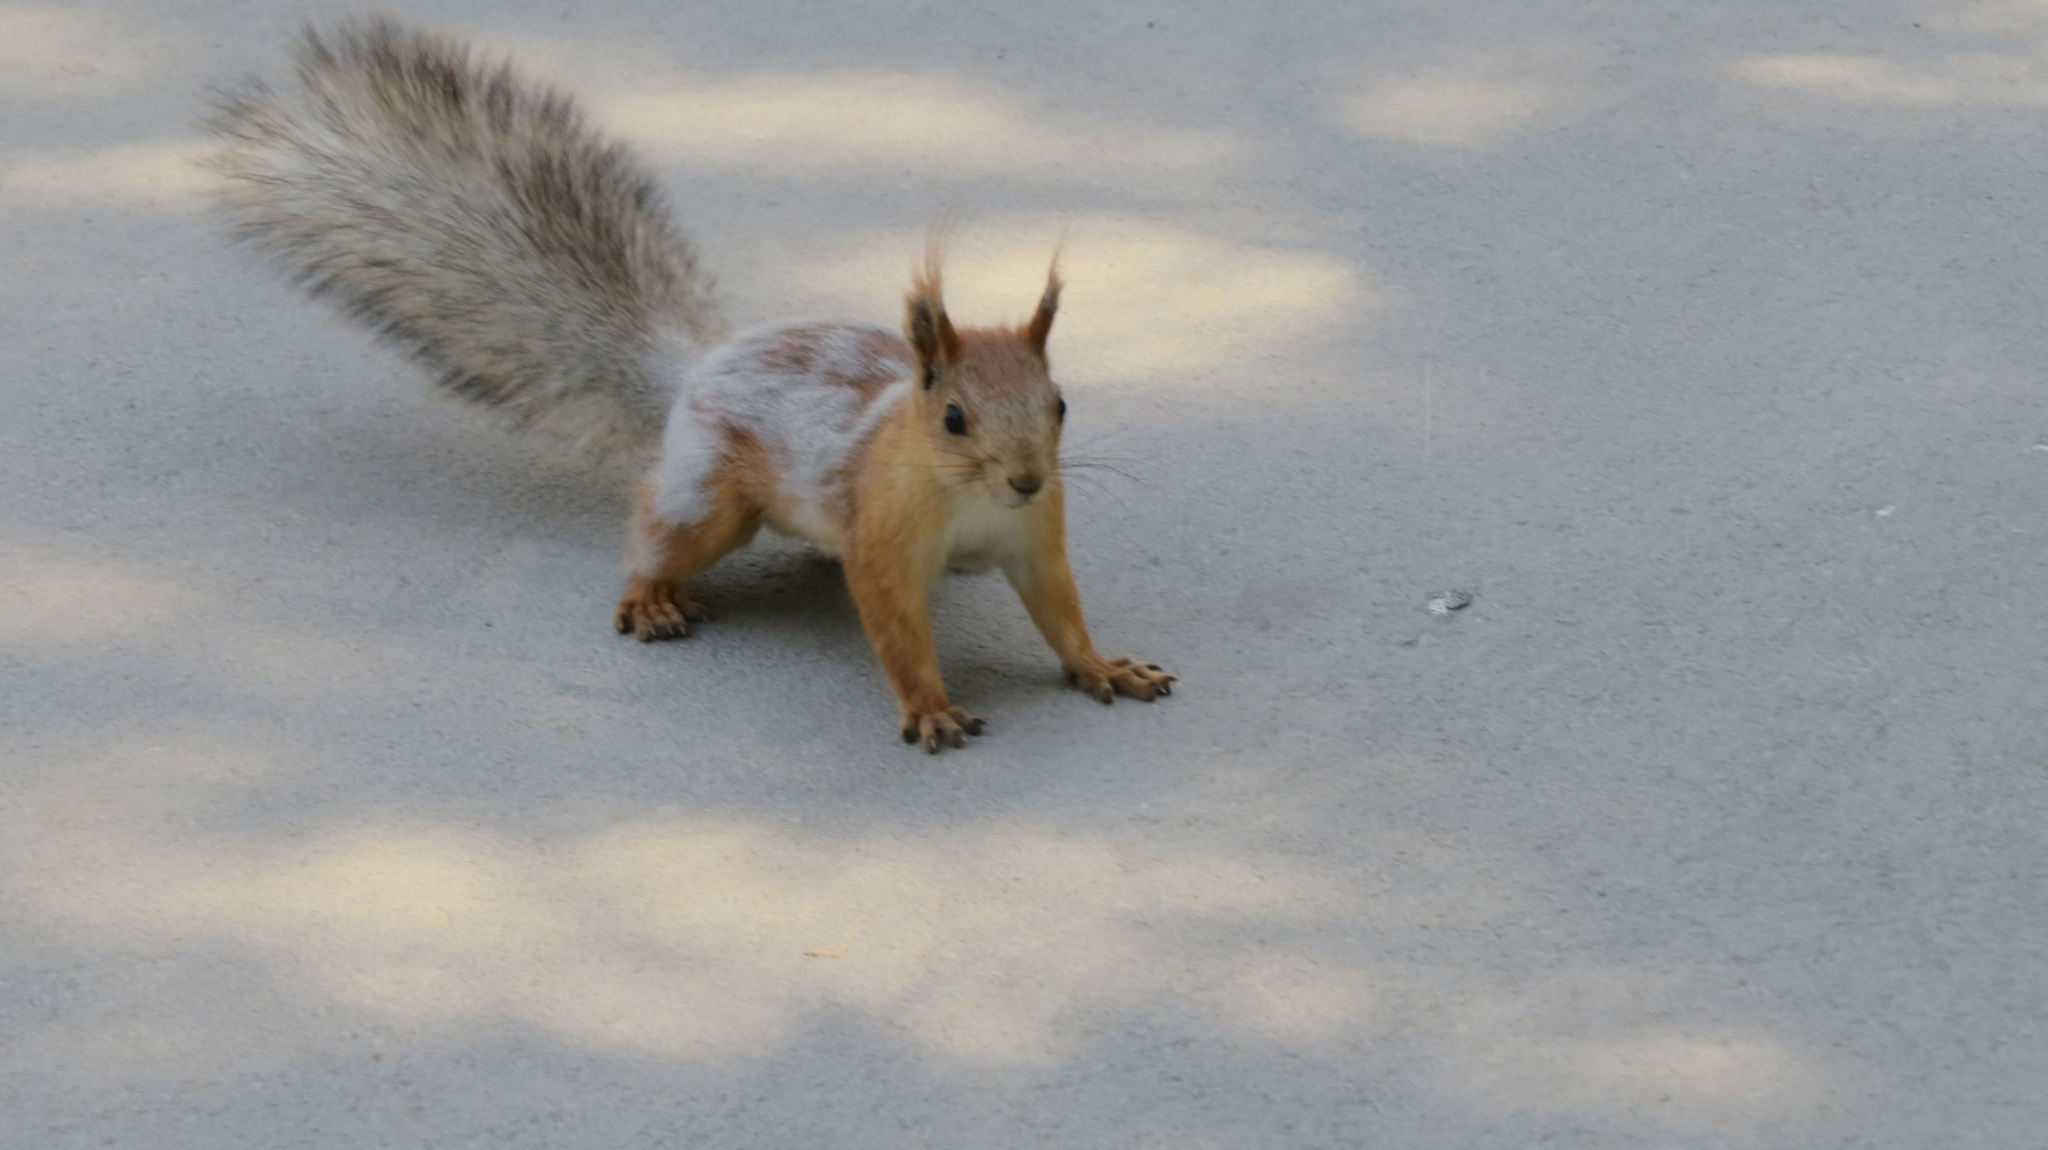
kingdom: Animalia
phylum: Chordata
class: Mammalia
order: Rodentia
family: Sciuridae
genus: Sciurus
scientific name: Sciurus vulgaris
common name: Eurasian red squirrel
